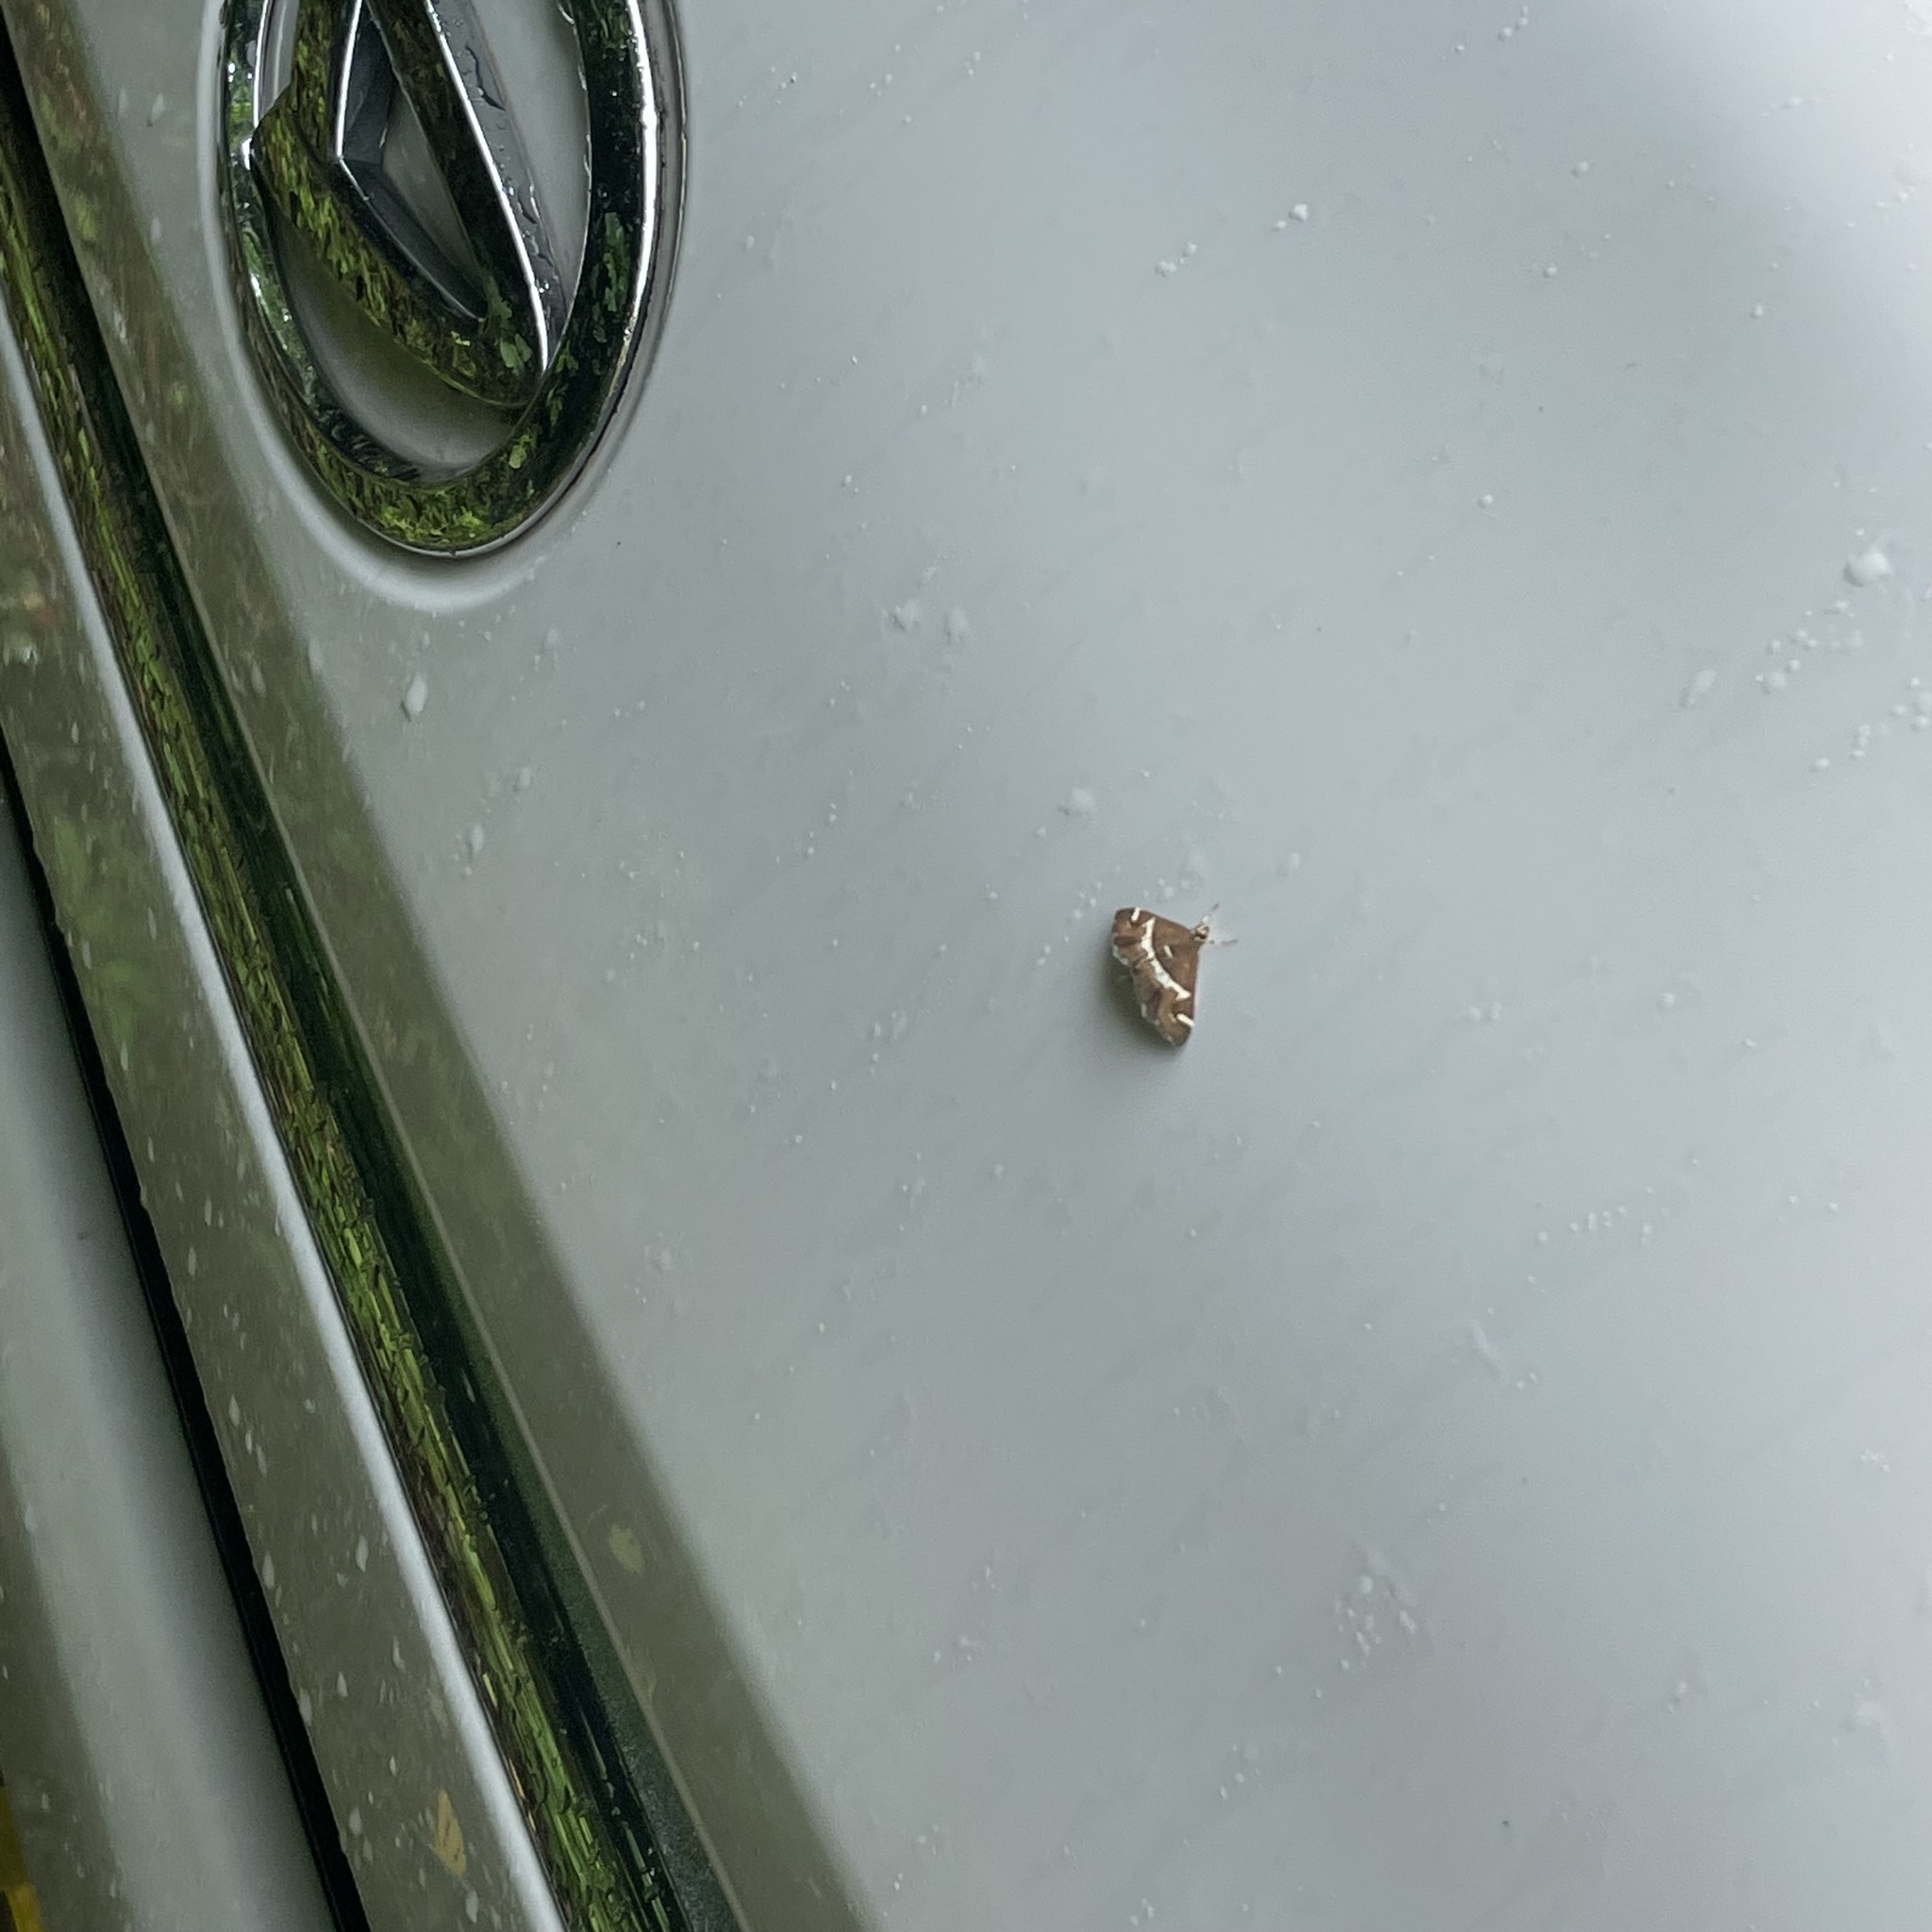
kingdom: Animalia
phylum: Arthropoda
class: Insecta
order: Lepidoptera
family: Crambidae
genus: Spoladea
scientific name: Spoladea recurvalis
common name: Beet webworm moth
